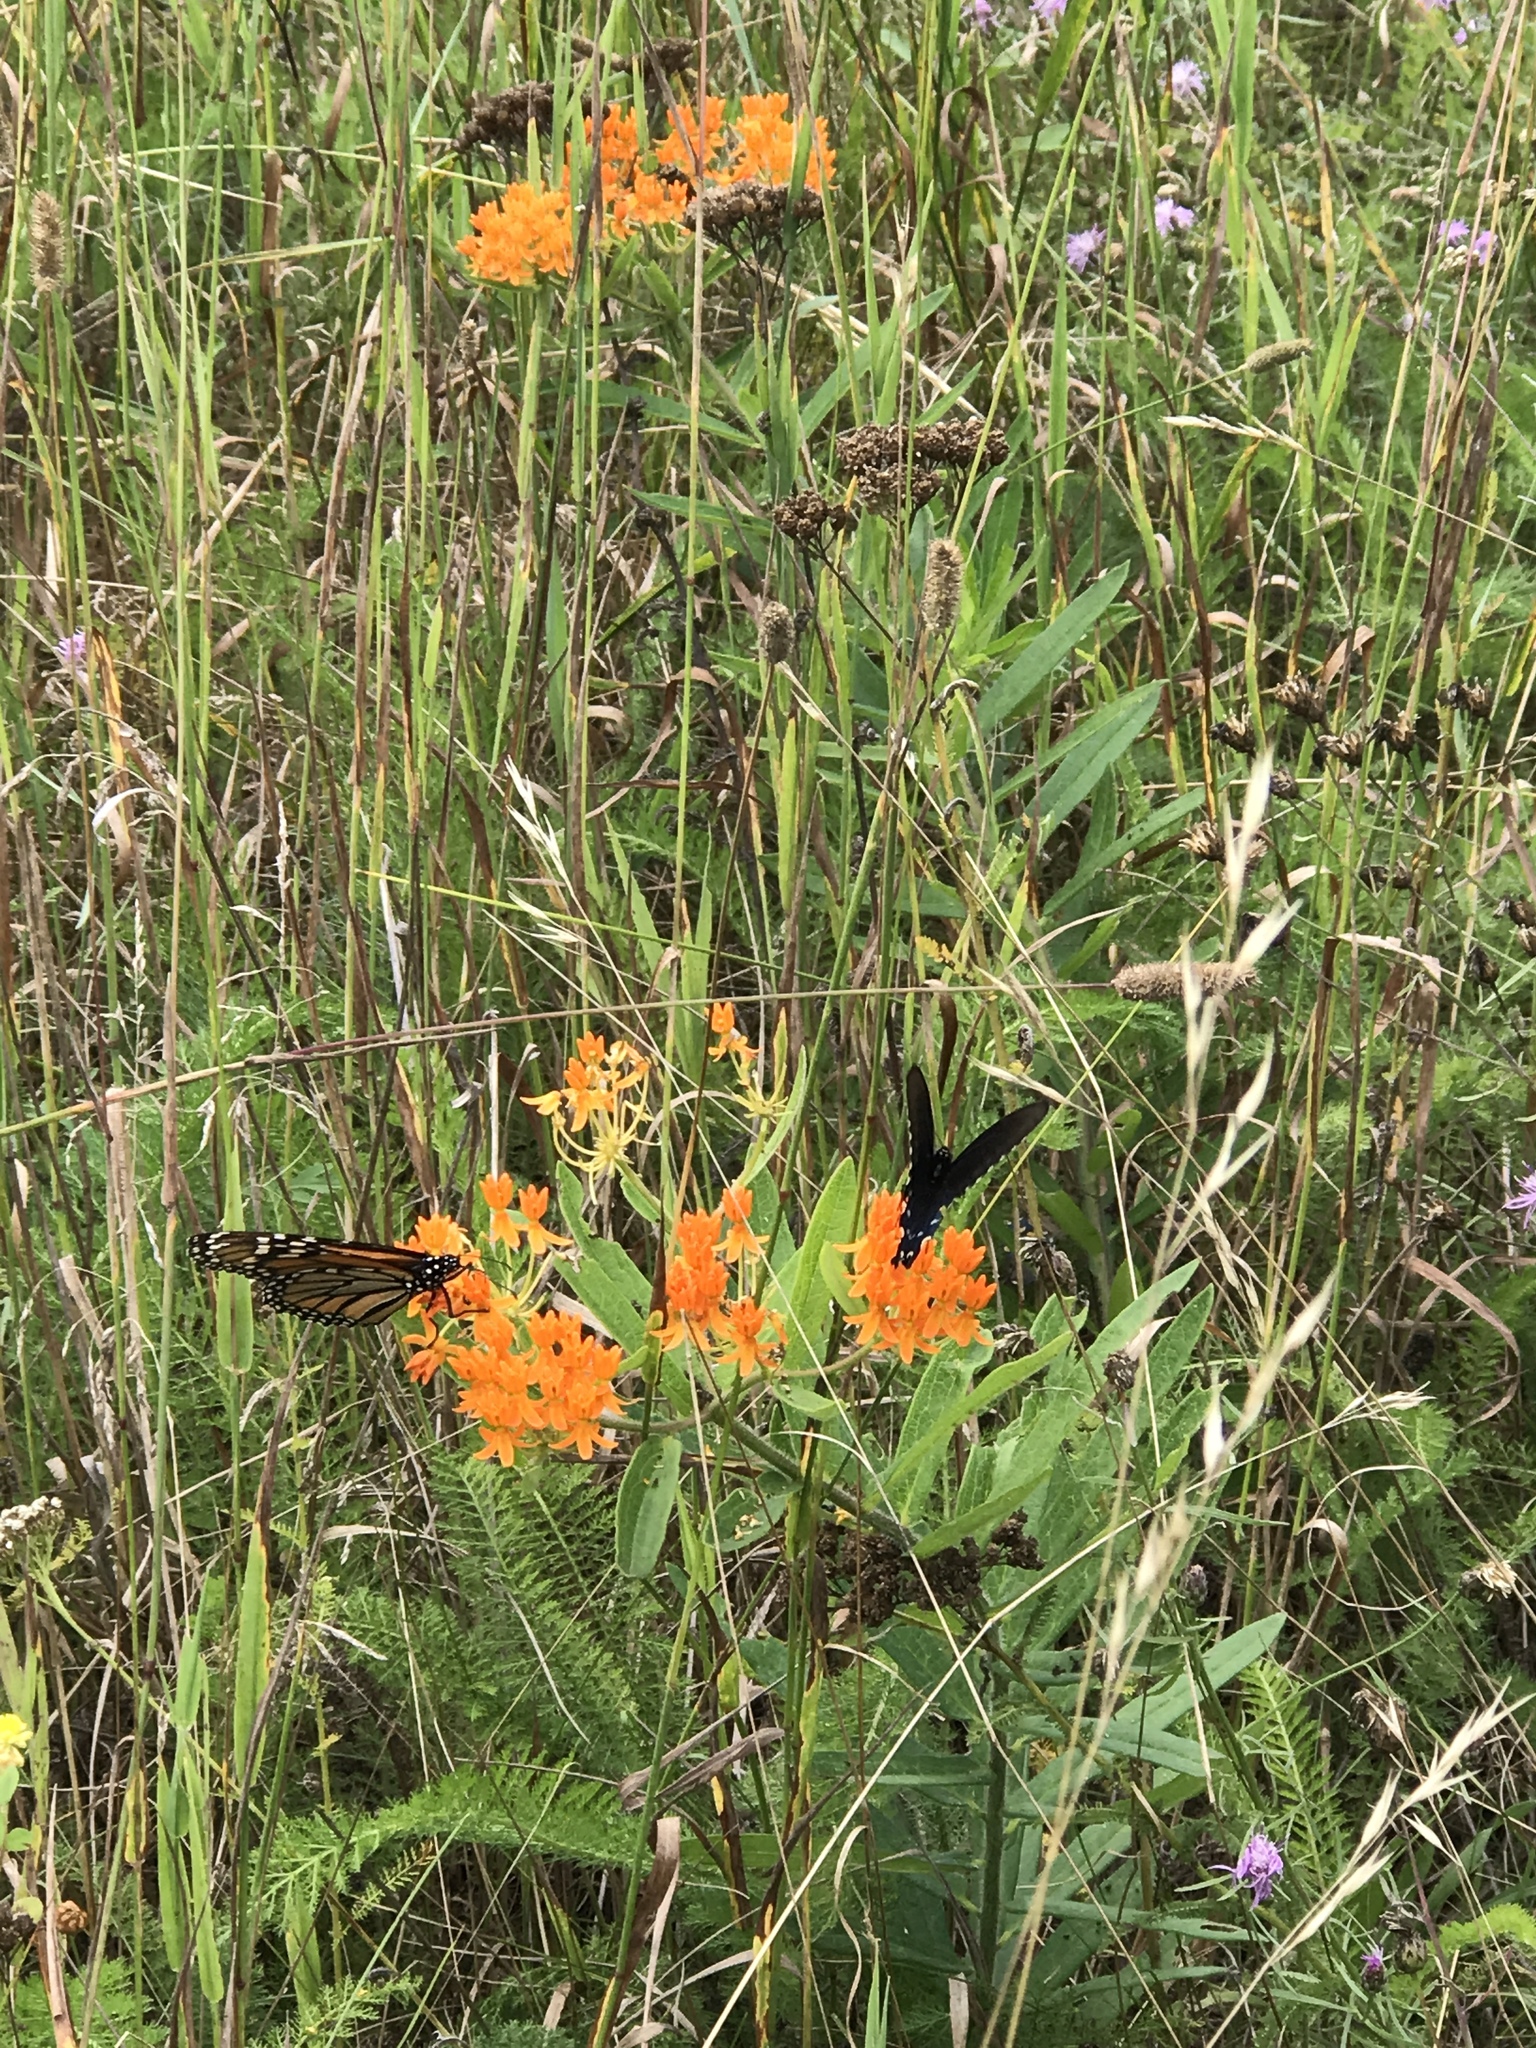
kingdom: Plantae
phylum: Tracheophyta
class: Magnoliopsida
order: Gentianales
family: Apocynaceae
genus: Asclepias
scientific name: Asclepias tuberosa
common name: Butterfly milkweed
